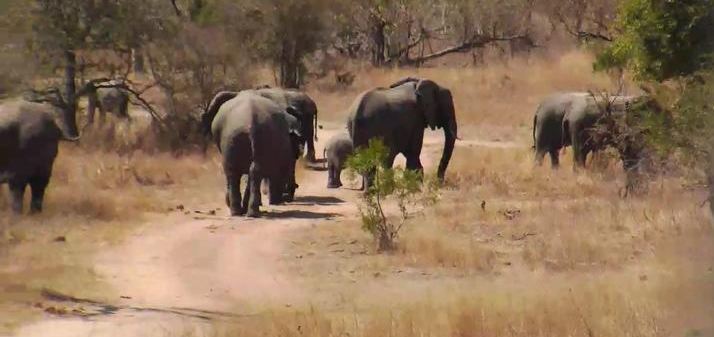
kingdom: Animalia
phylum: Chordata
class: Mammalia
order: Proboscidea
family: Elephantidae
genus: Loxodonta
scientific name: Loxodonta africana
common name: African elephant
